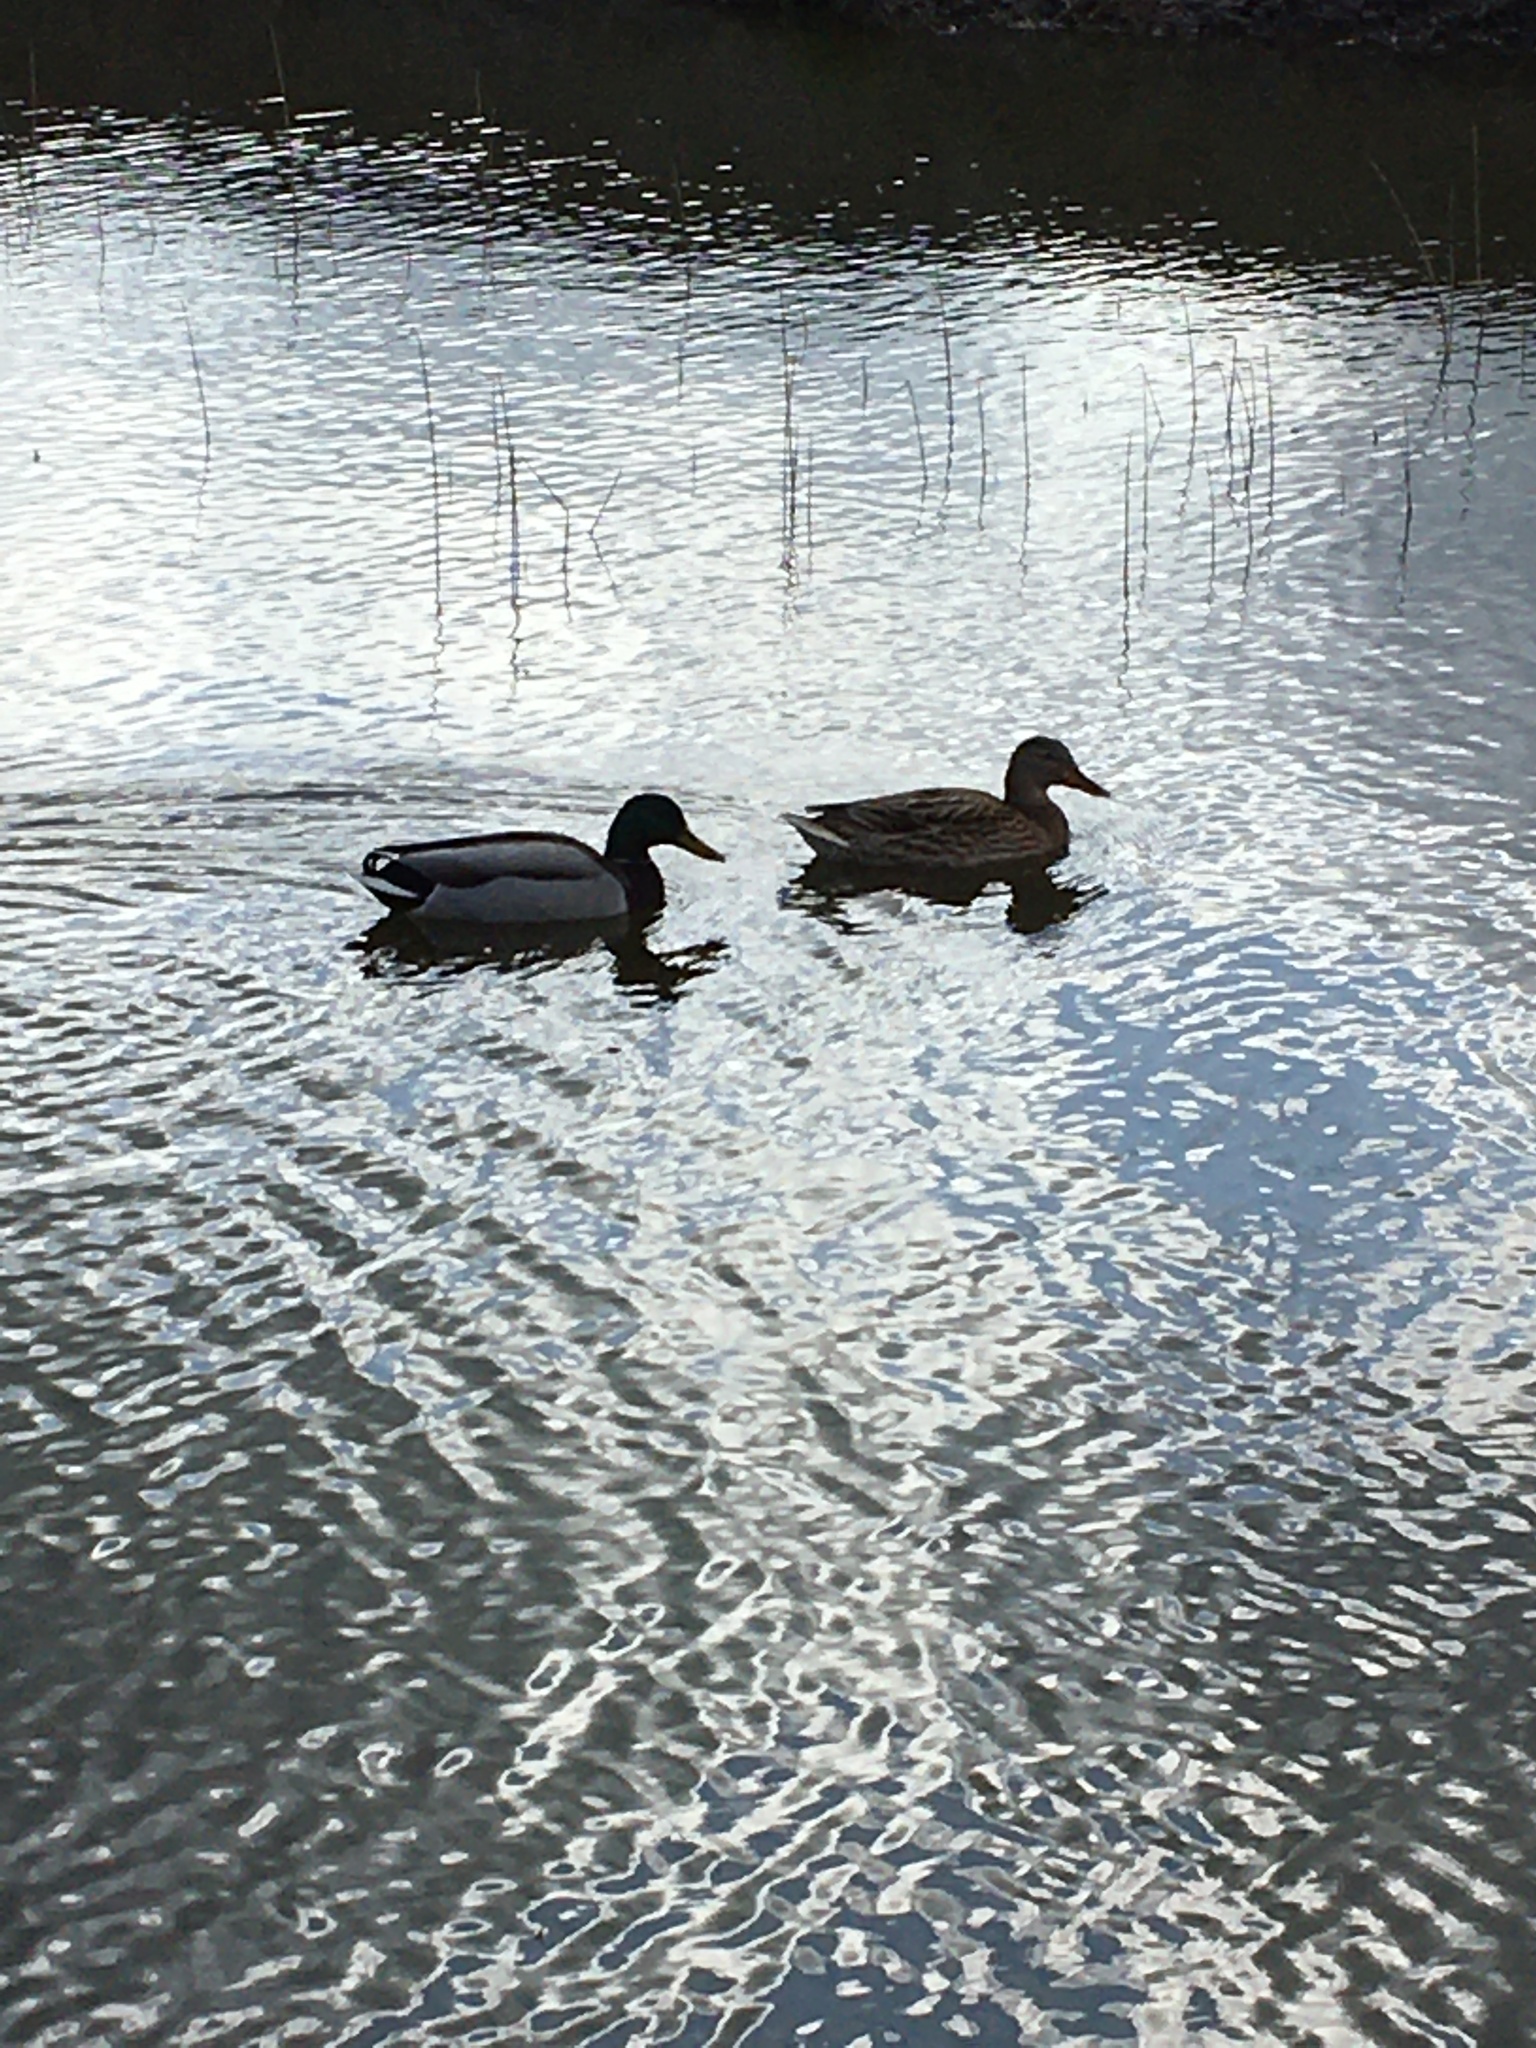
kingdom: Animalia
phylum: Chordata
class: Aves
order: Anseriformes
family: Anatidae
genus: Anas
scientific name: Anas platyrhynchos
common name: Mallard
